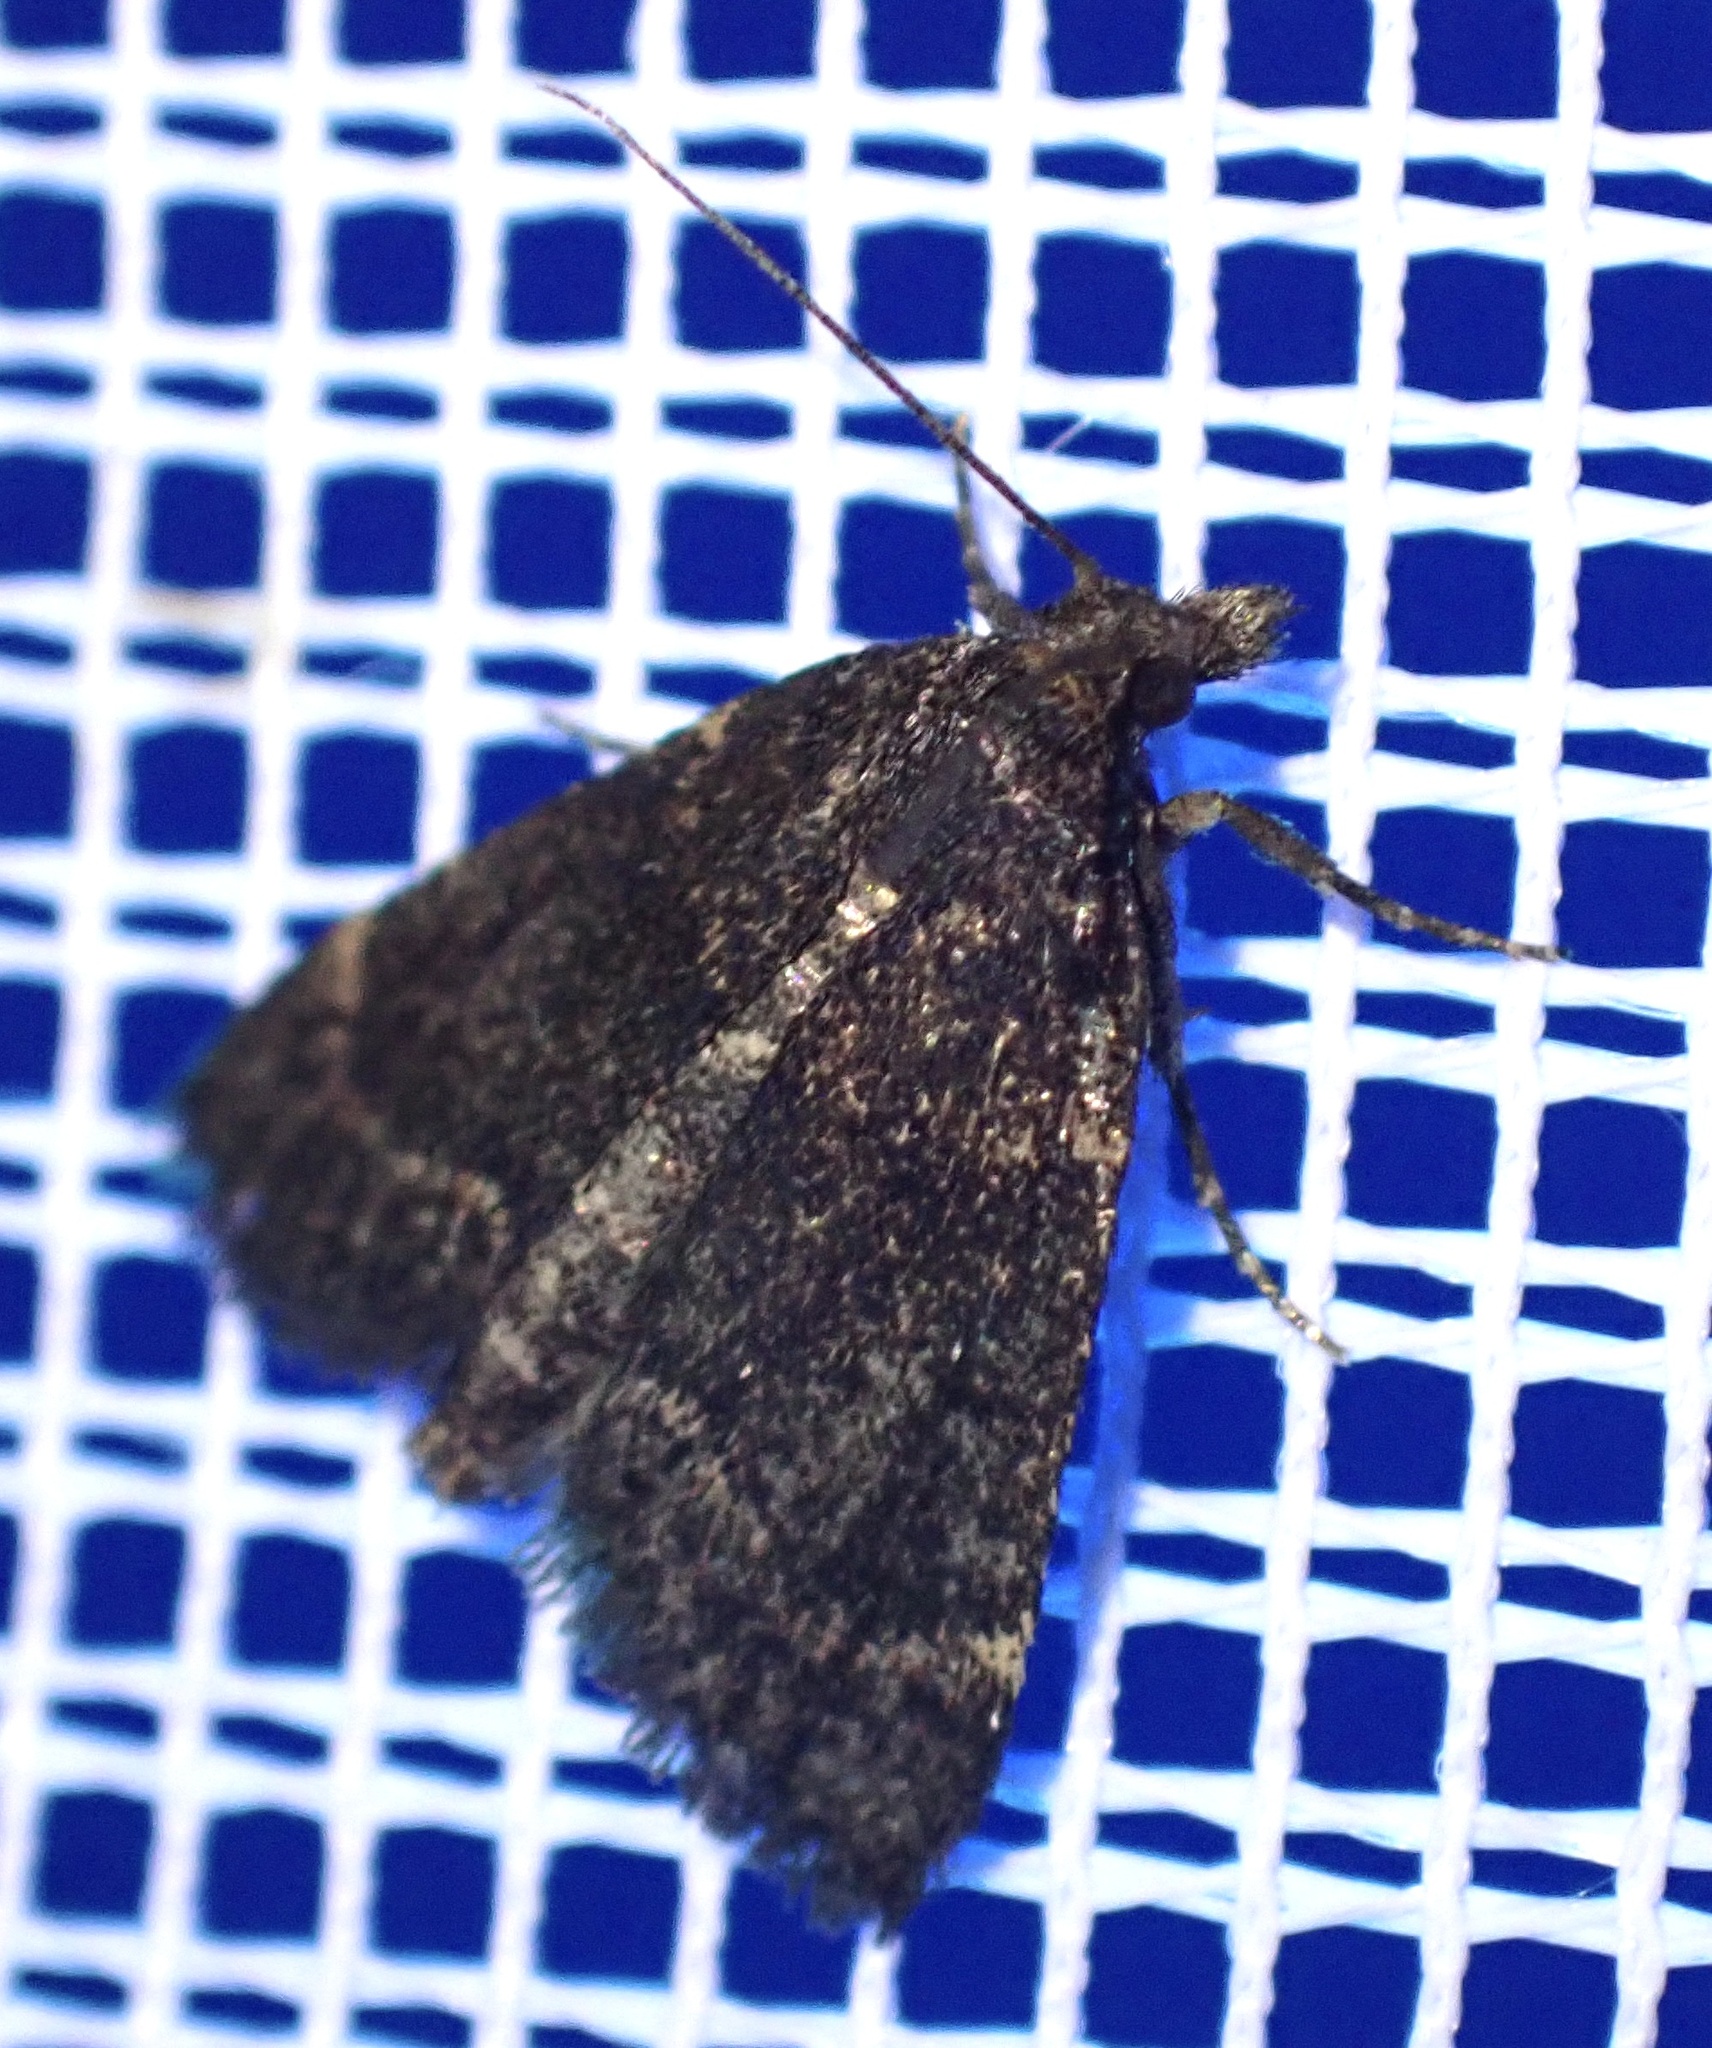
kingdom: Animalia
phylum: Arthropoda
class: Insecta
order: Lepidoptera
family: Pyralidae
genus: Stemmatophora
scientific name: Stemmatophora syriacalis
